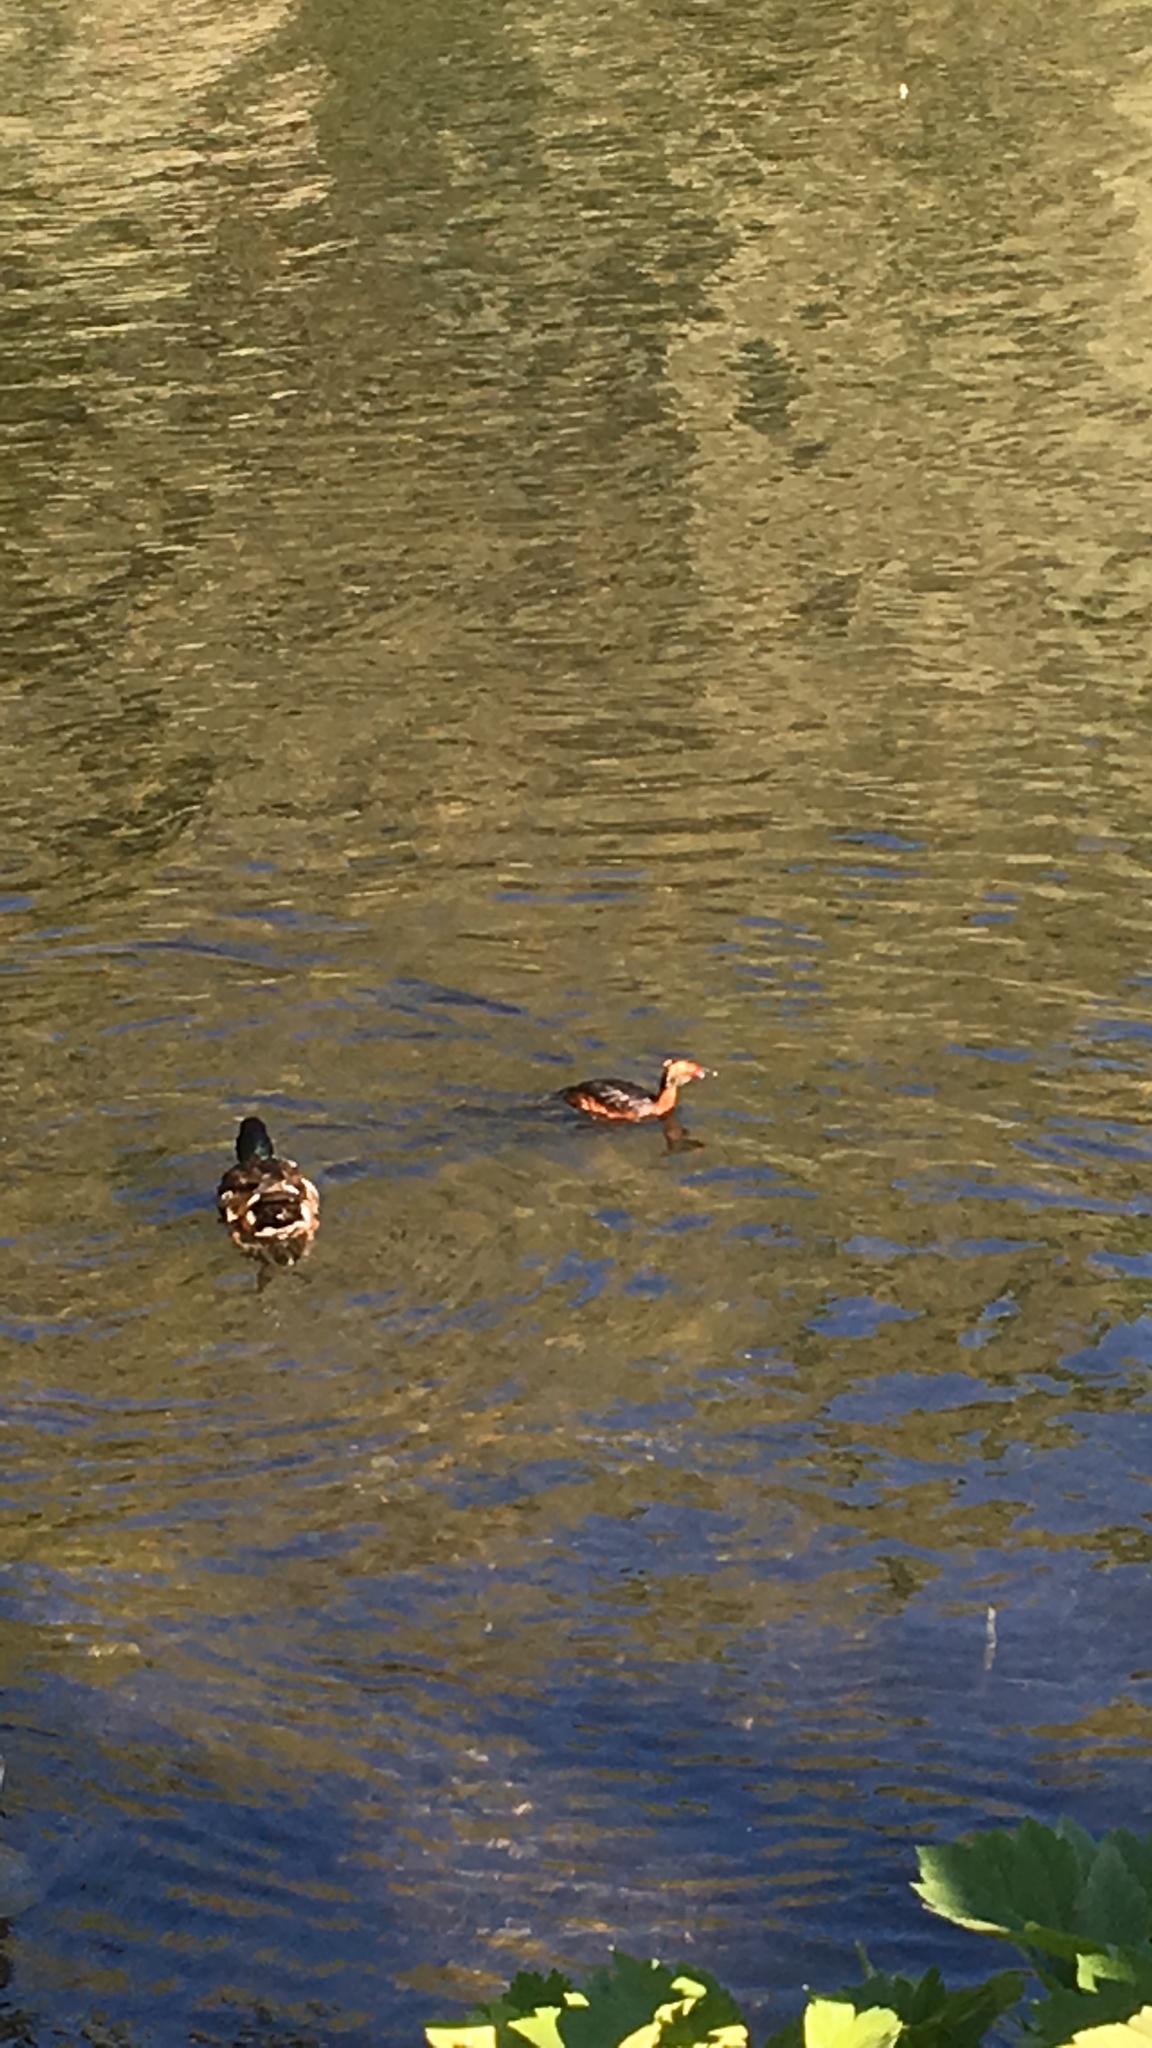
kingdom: Animalia
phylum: Chordata
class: Aves
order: Podicipediformes
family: Podicipedidae
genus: Podiceps
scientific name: Podiceps cristatus
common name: Great crested grebe
